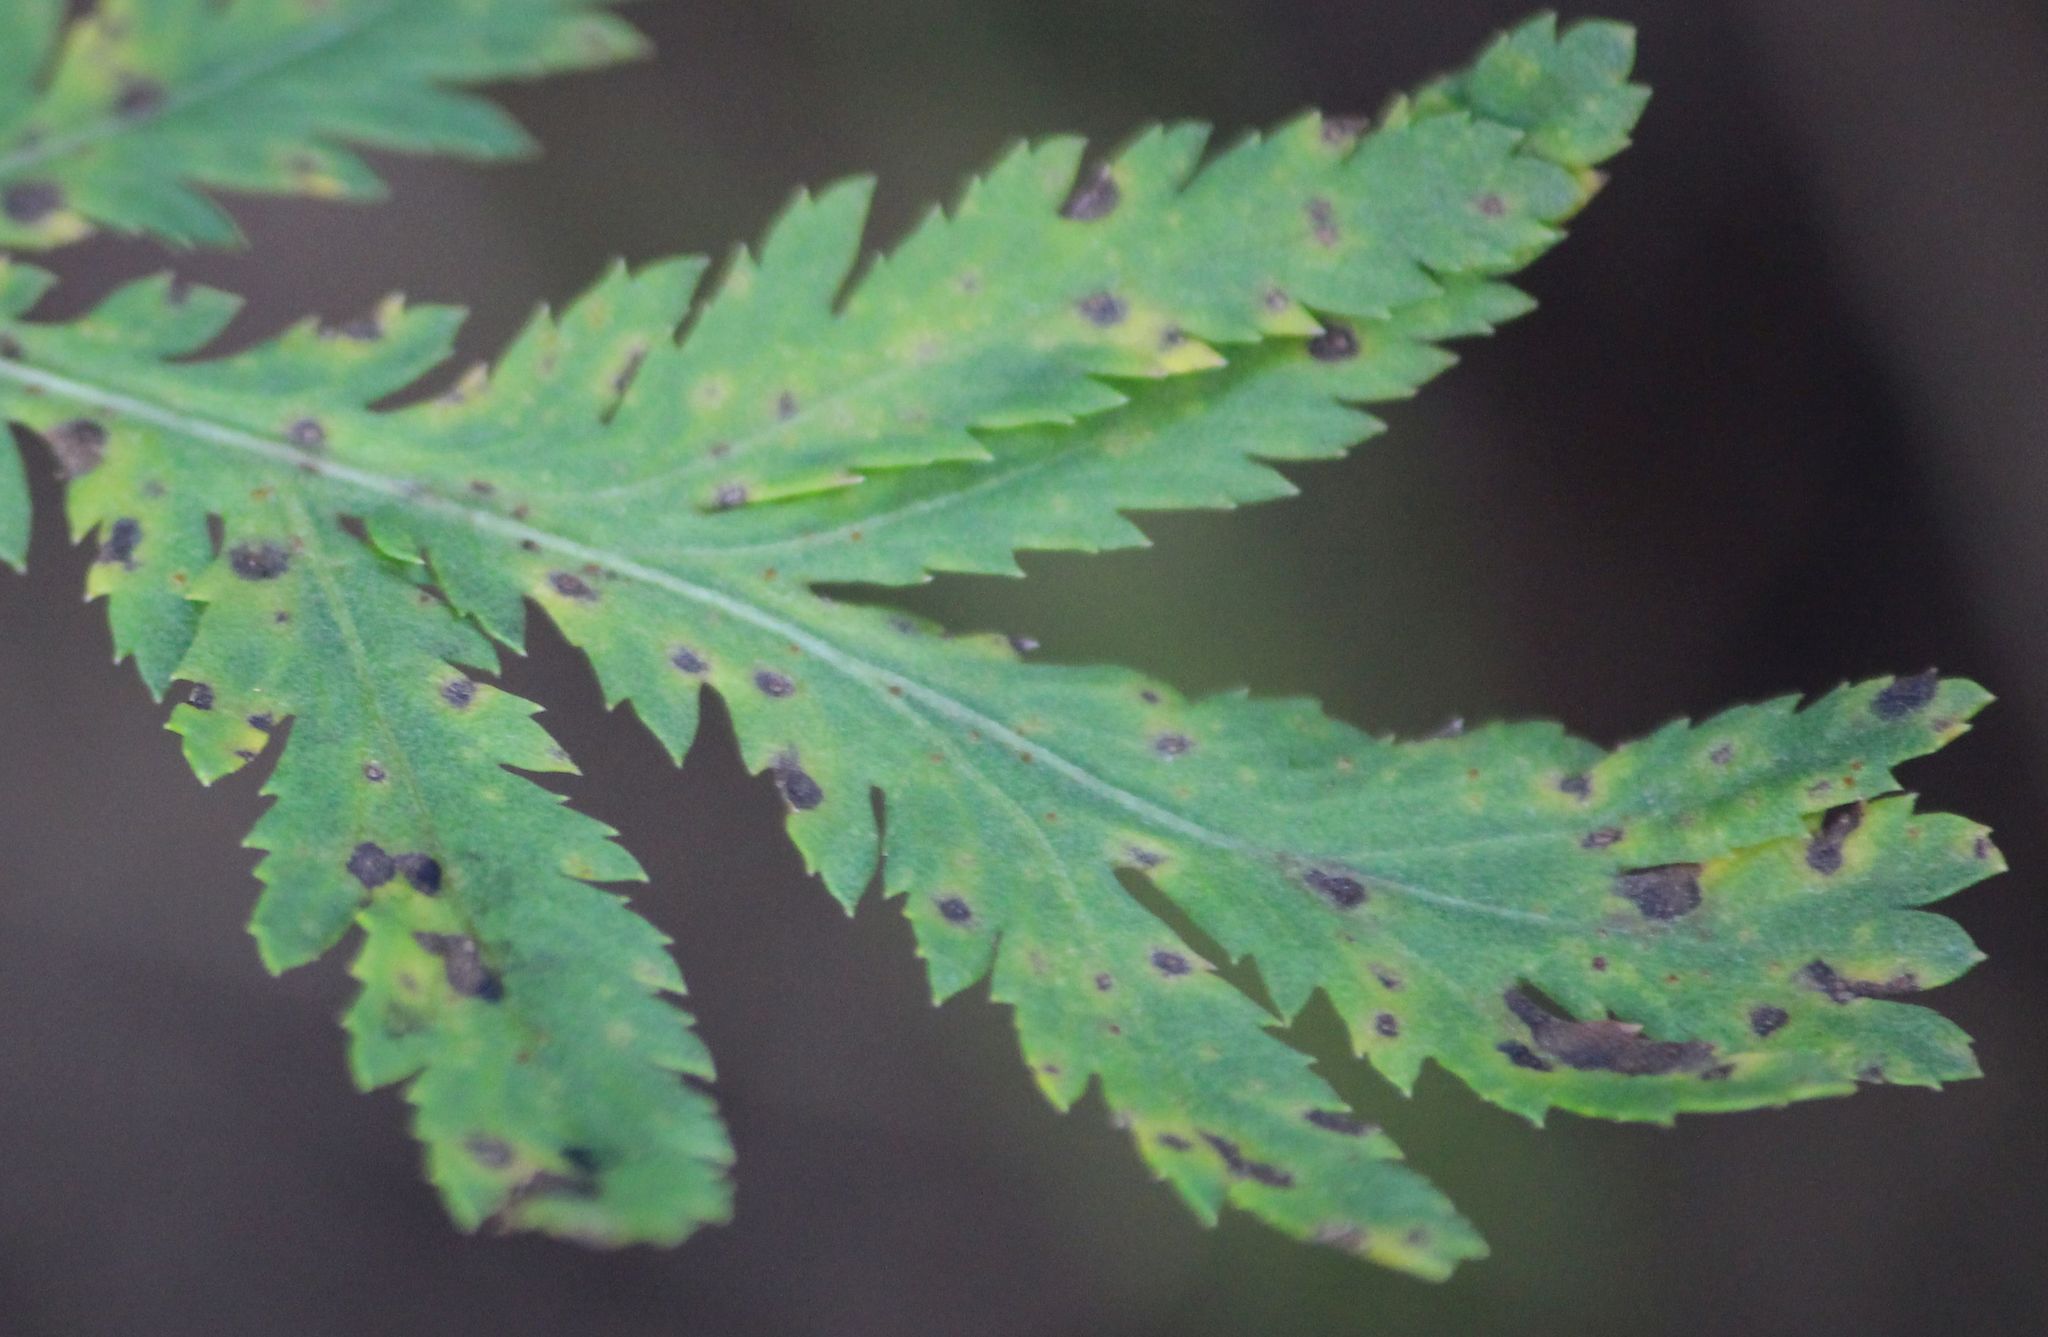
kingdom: Plantae
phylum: Tracheophyta
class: Magnoliopsida
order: Asterales
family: Asteraceae
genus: Tanacetum
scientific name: Tanacetum vulgare
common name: Common tansy
